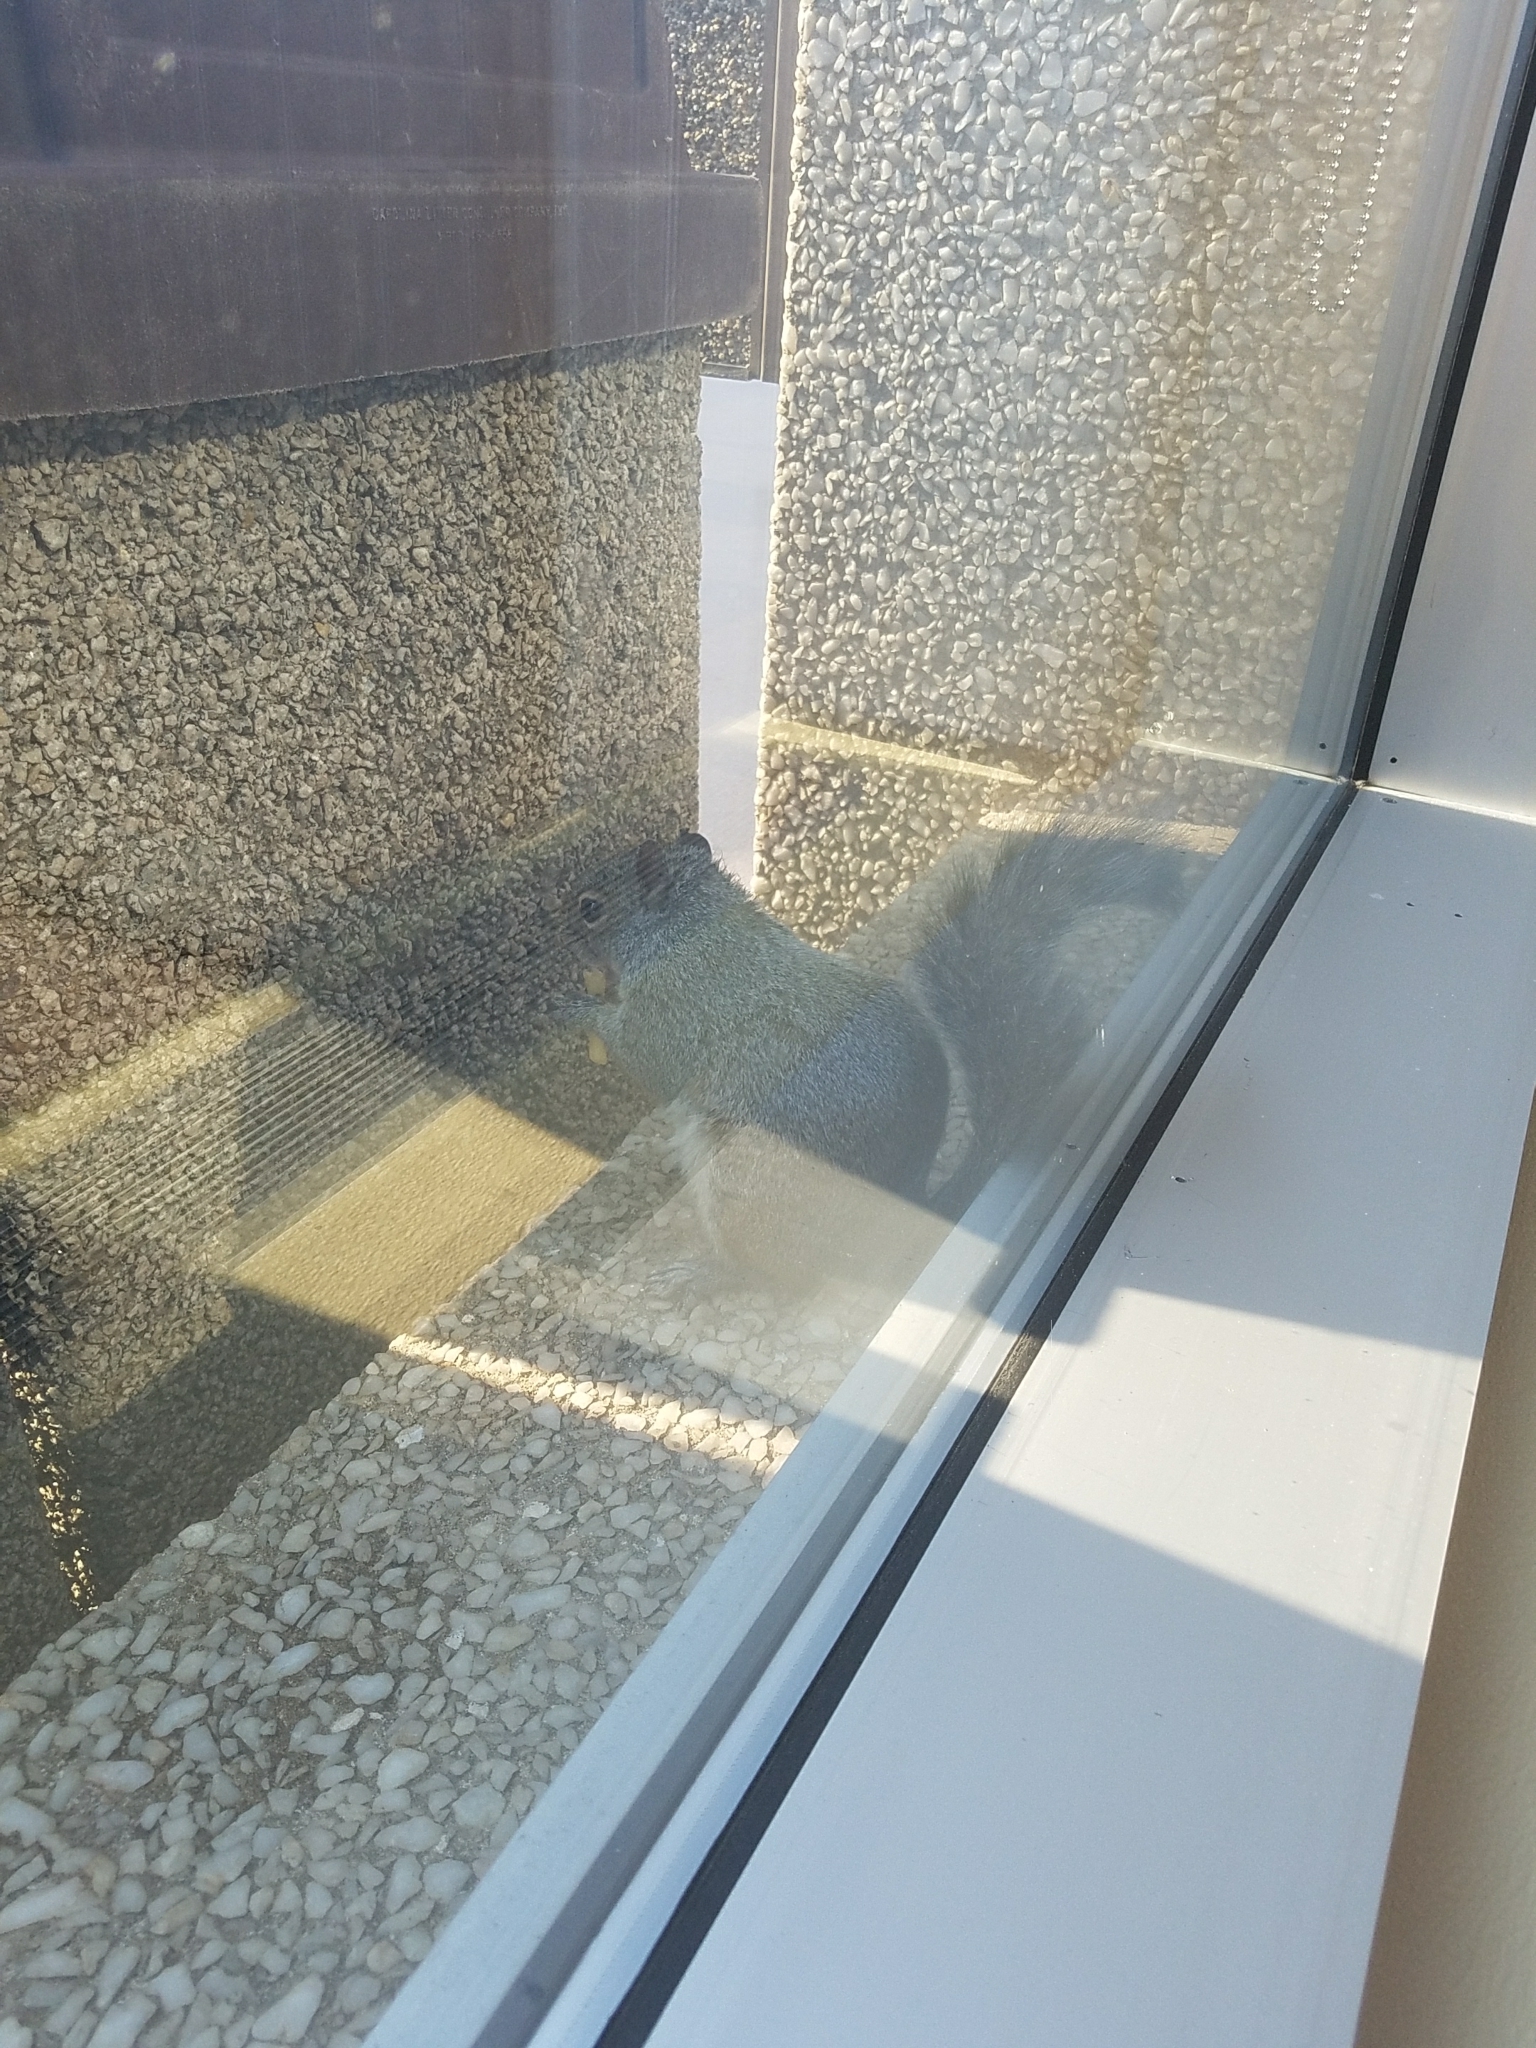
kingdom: Animalia
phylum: Chordata
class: Mammalia
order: Rodentia
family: Sciuridae
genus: Sciurus
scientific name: Sciurus carolinensis
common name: Eastern gray squirrel
